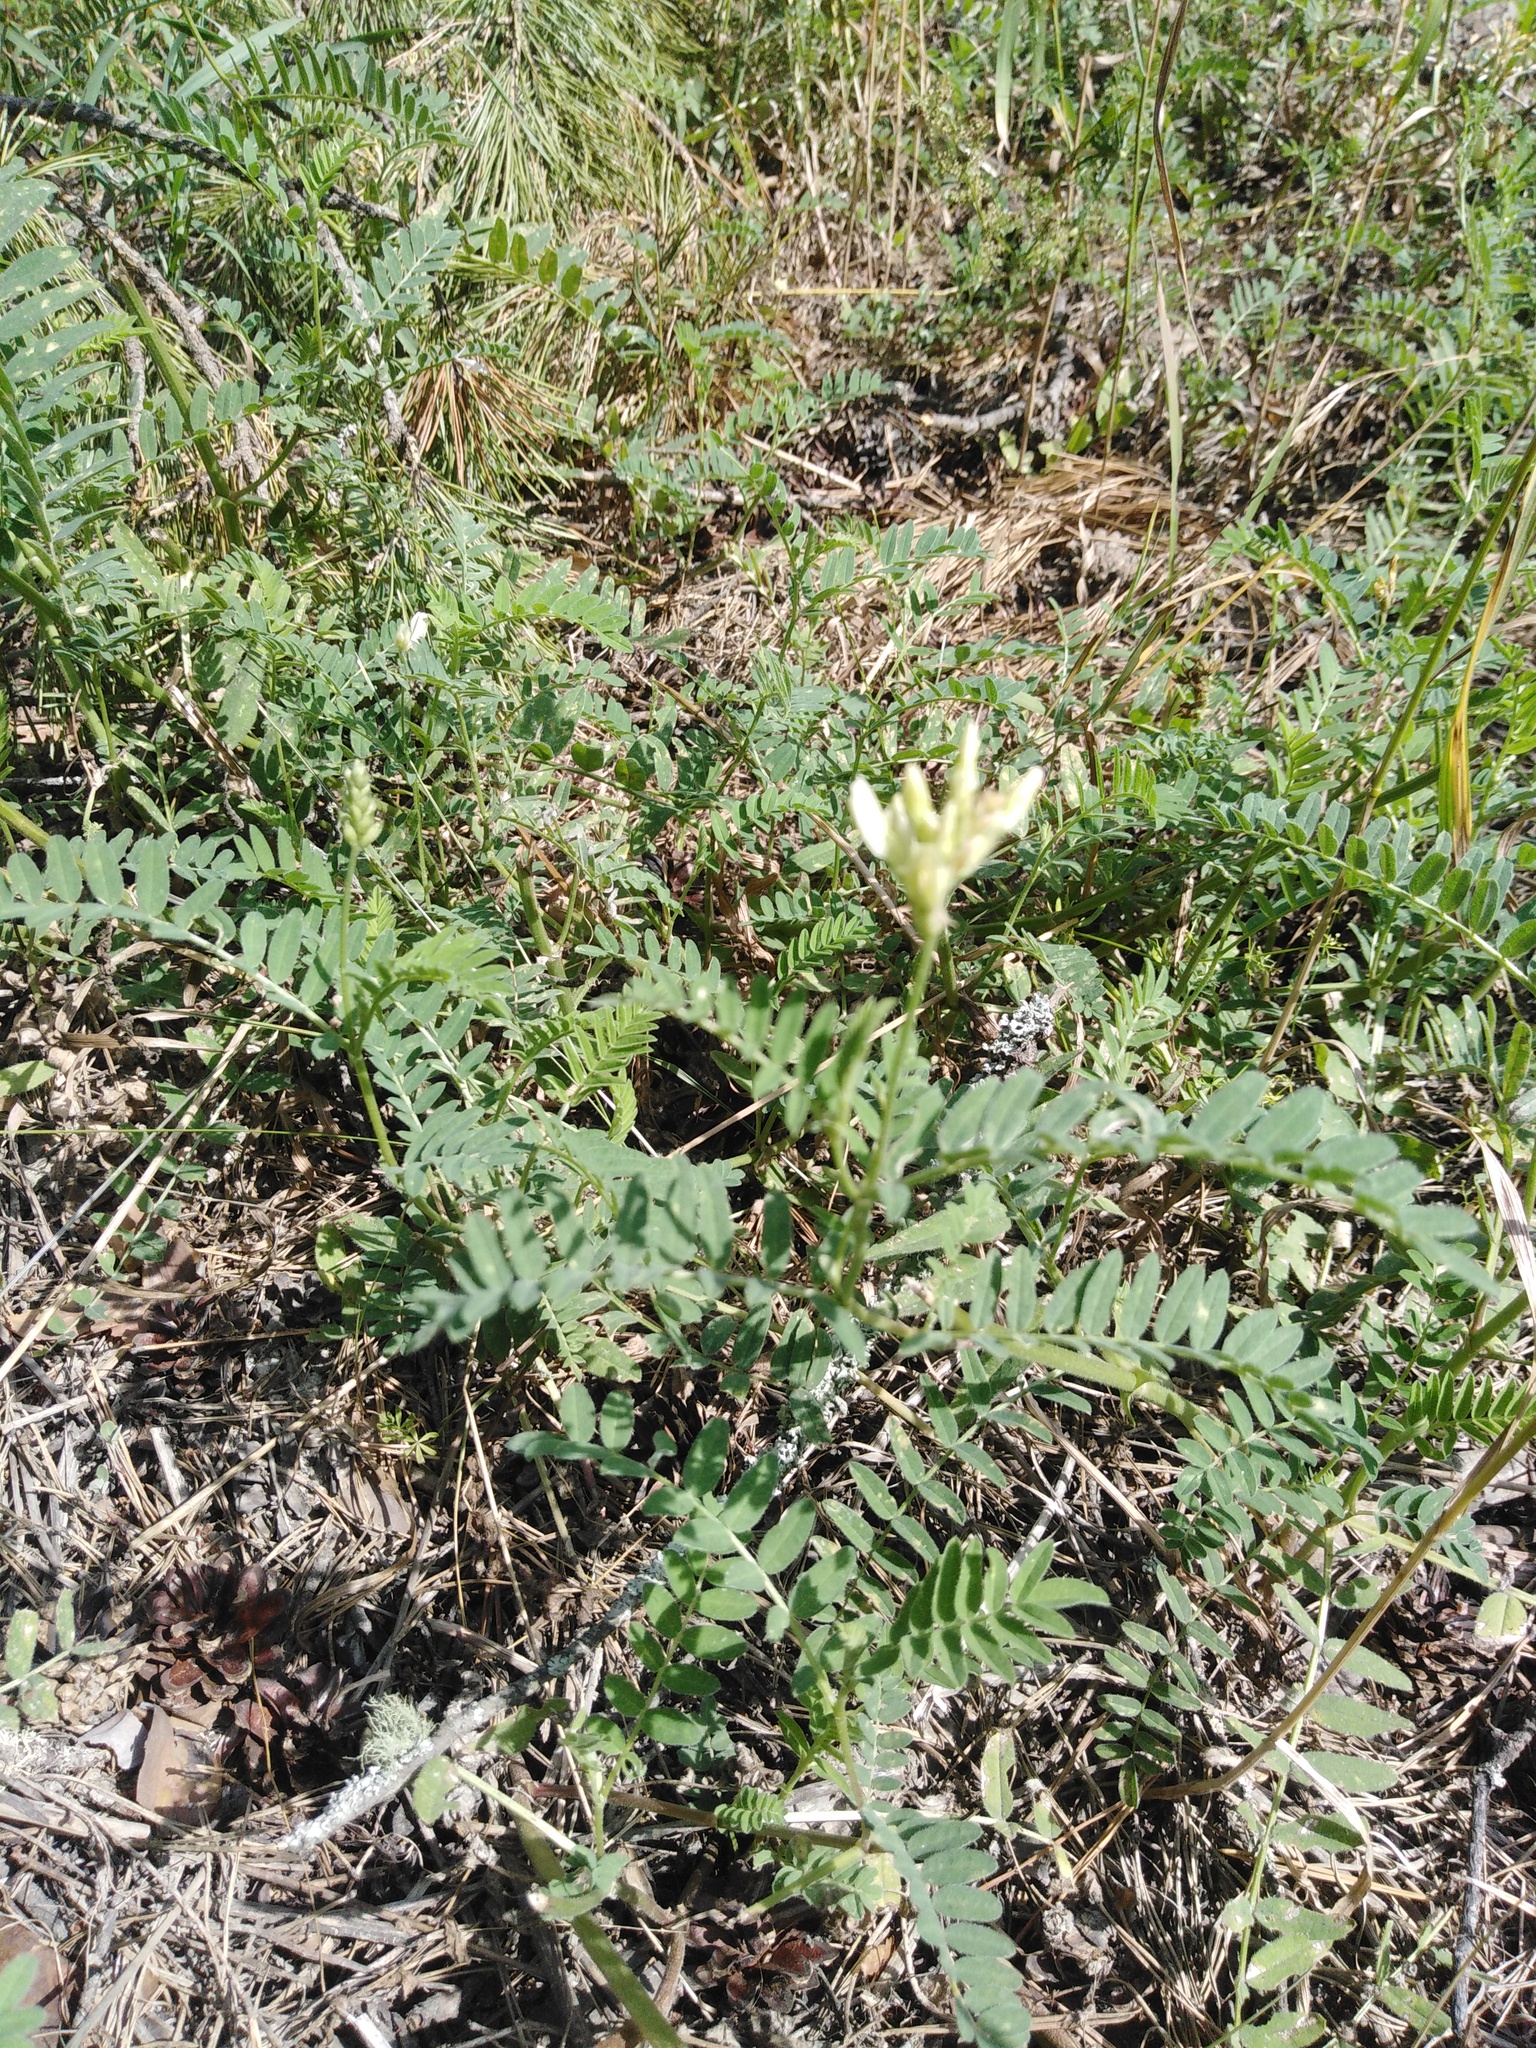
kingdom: Plantae
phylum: Tracheophyta
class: Magnoliopsida
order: Fabales
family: Fabaceae
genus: Astragalus
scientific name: Astragalus cicer
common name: Chick-pea milk-vetch
